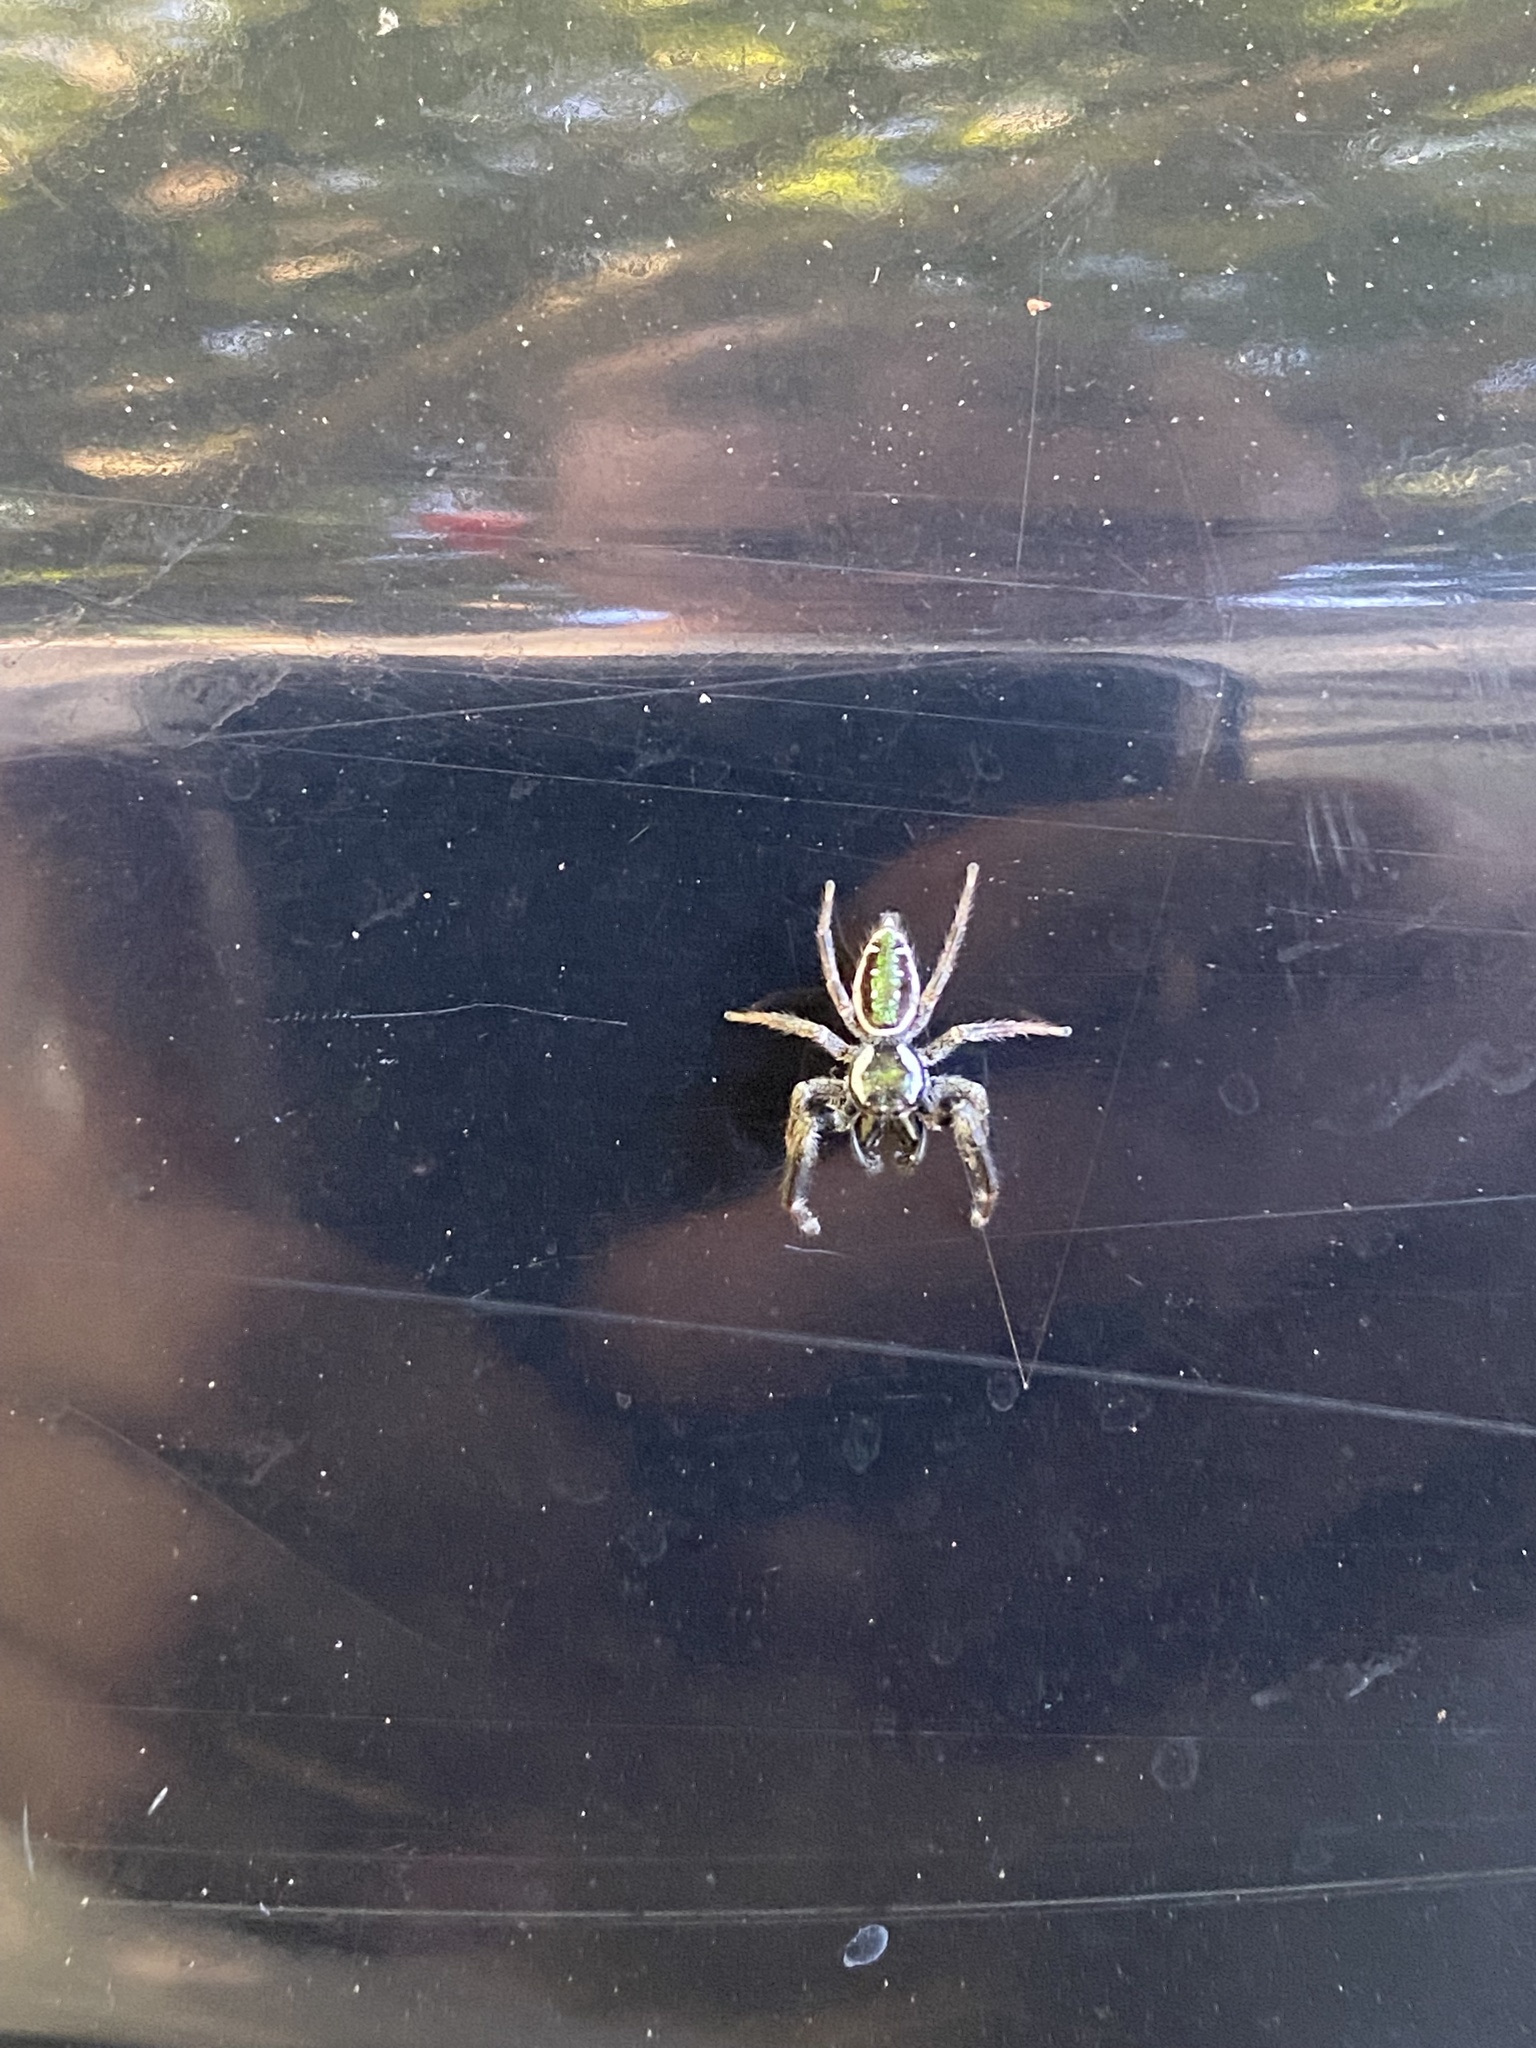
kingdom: Animalia
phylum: Arthropoda
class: Arachnida
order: Araneae
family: Salticidae
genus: Paraphidippus
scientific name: Paraphidippus aurantius
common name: Jumping spiders
